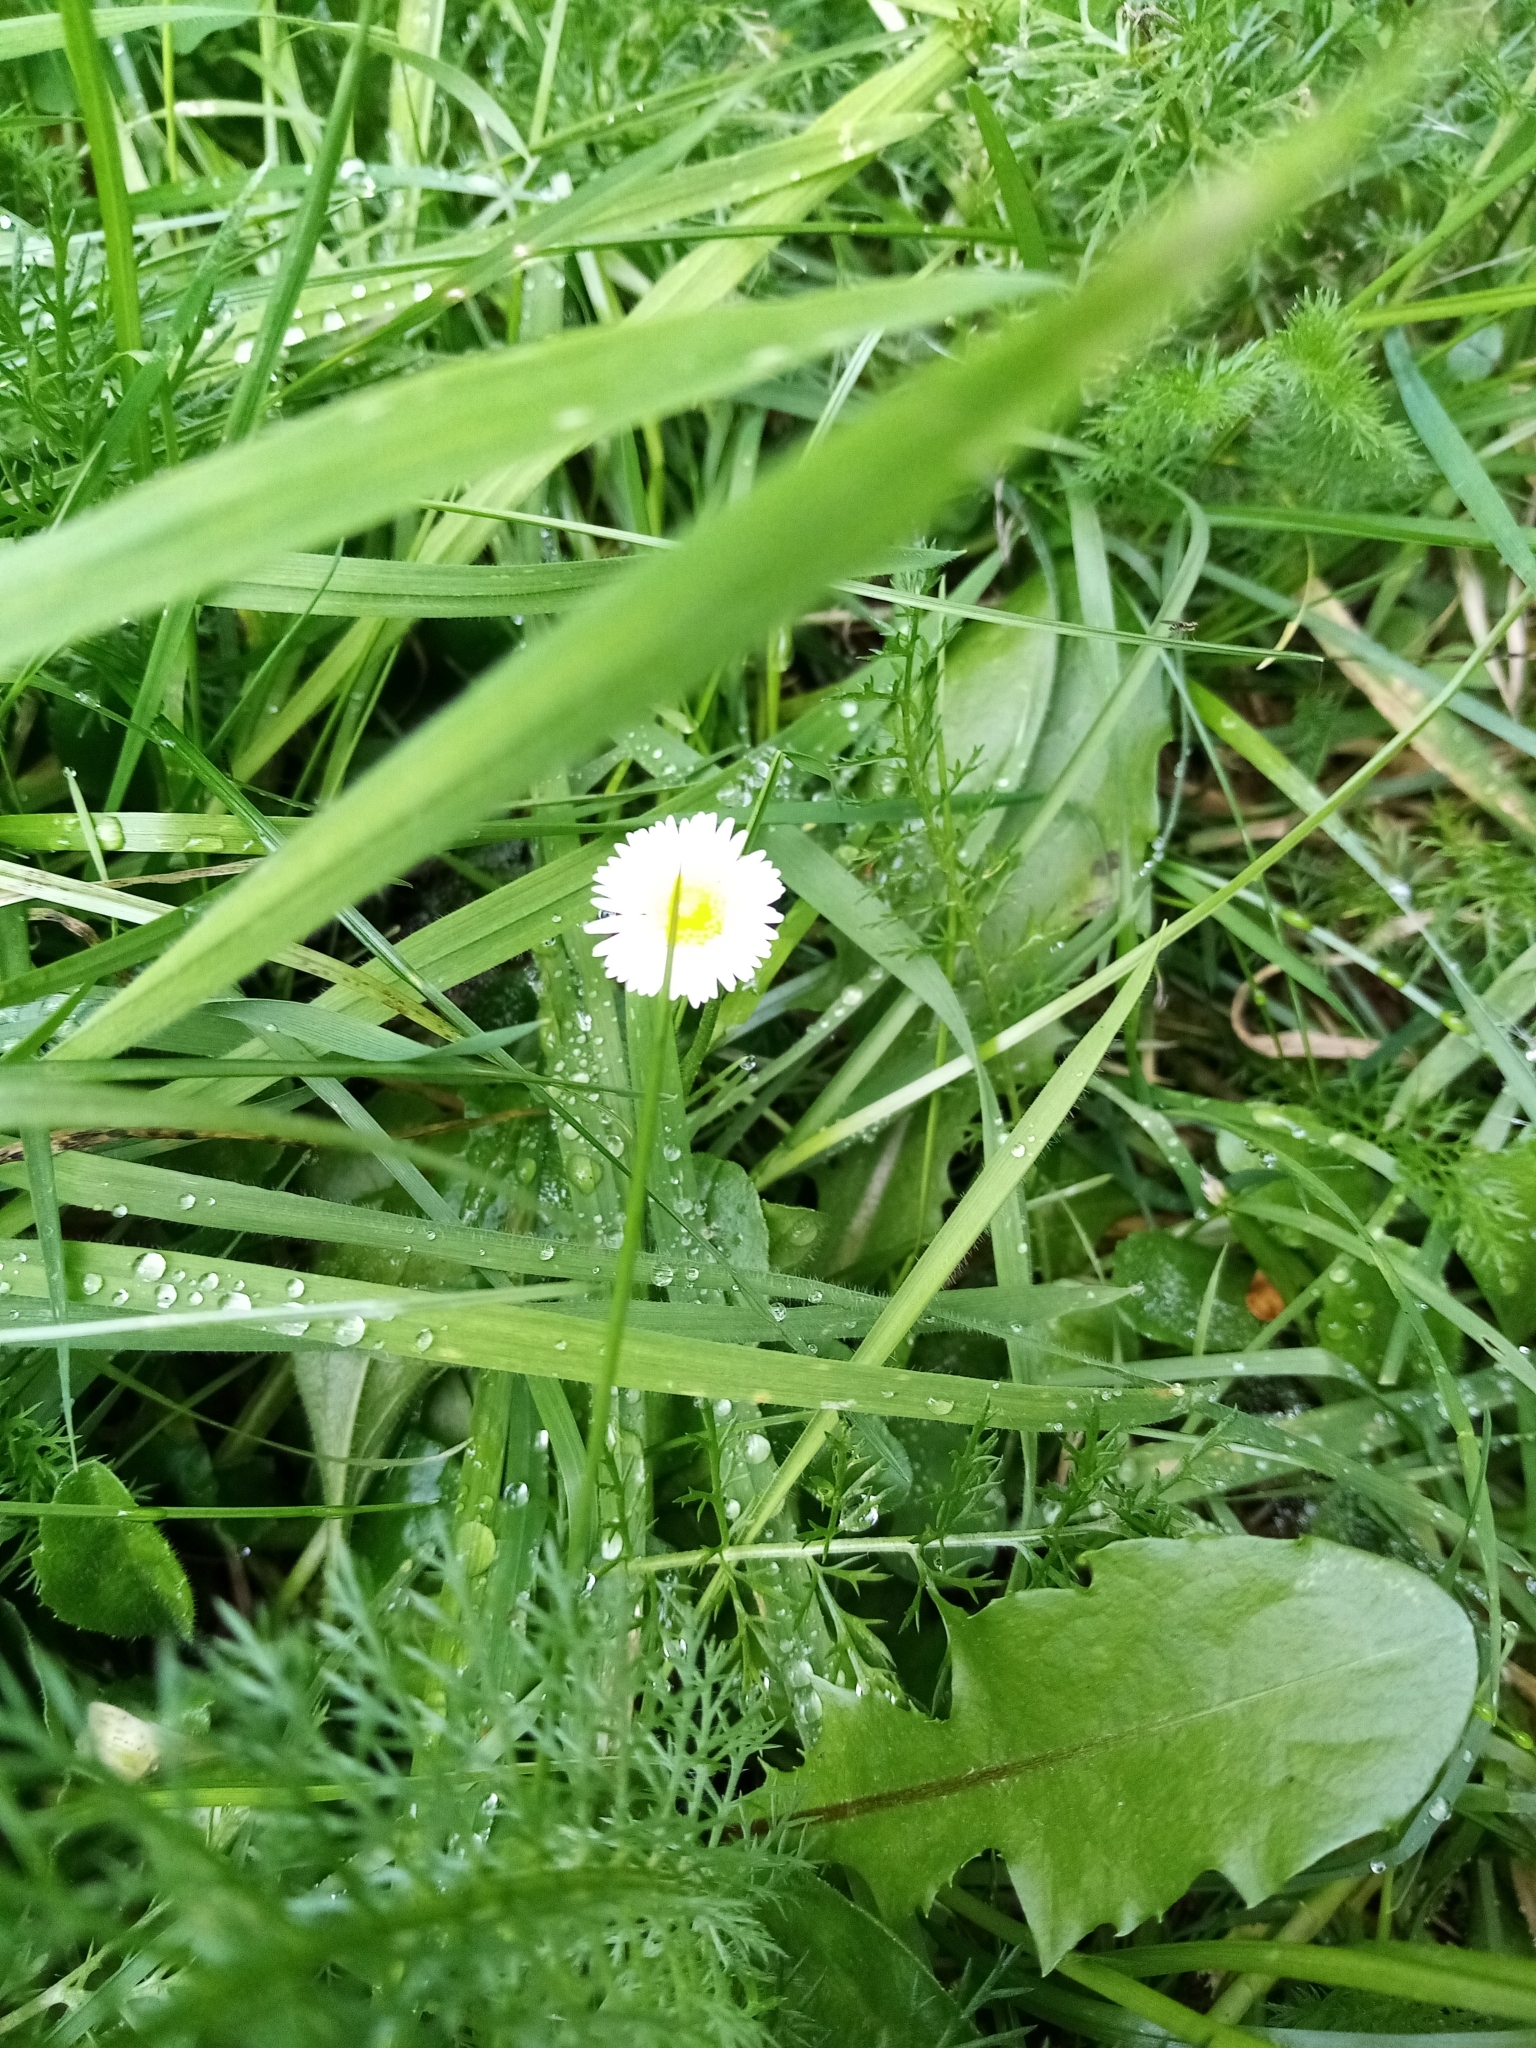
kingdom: Plantae
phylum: Tracheophyta
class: Magnoliopsida
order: Asterales
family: Asteraceae
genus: Bellis
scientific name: Bellis perennis
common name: Lawndaisy
